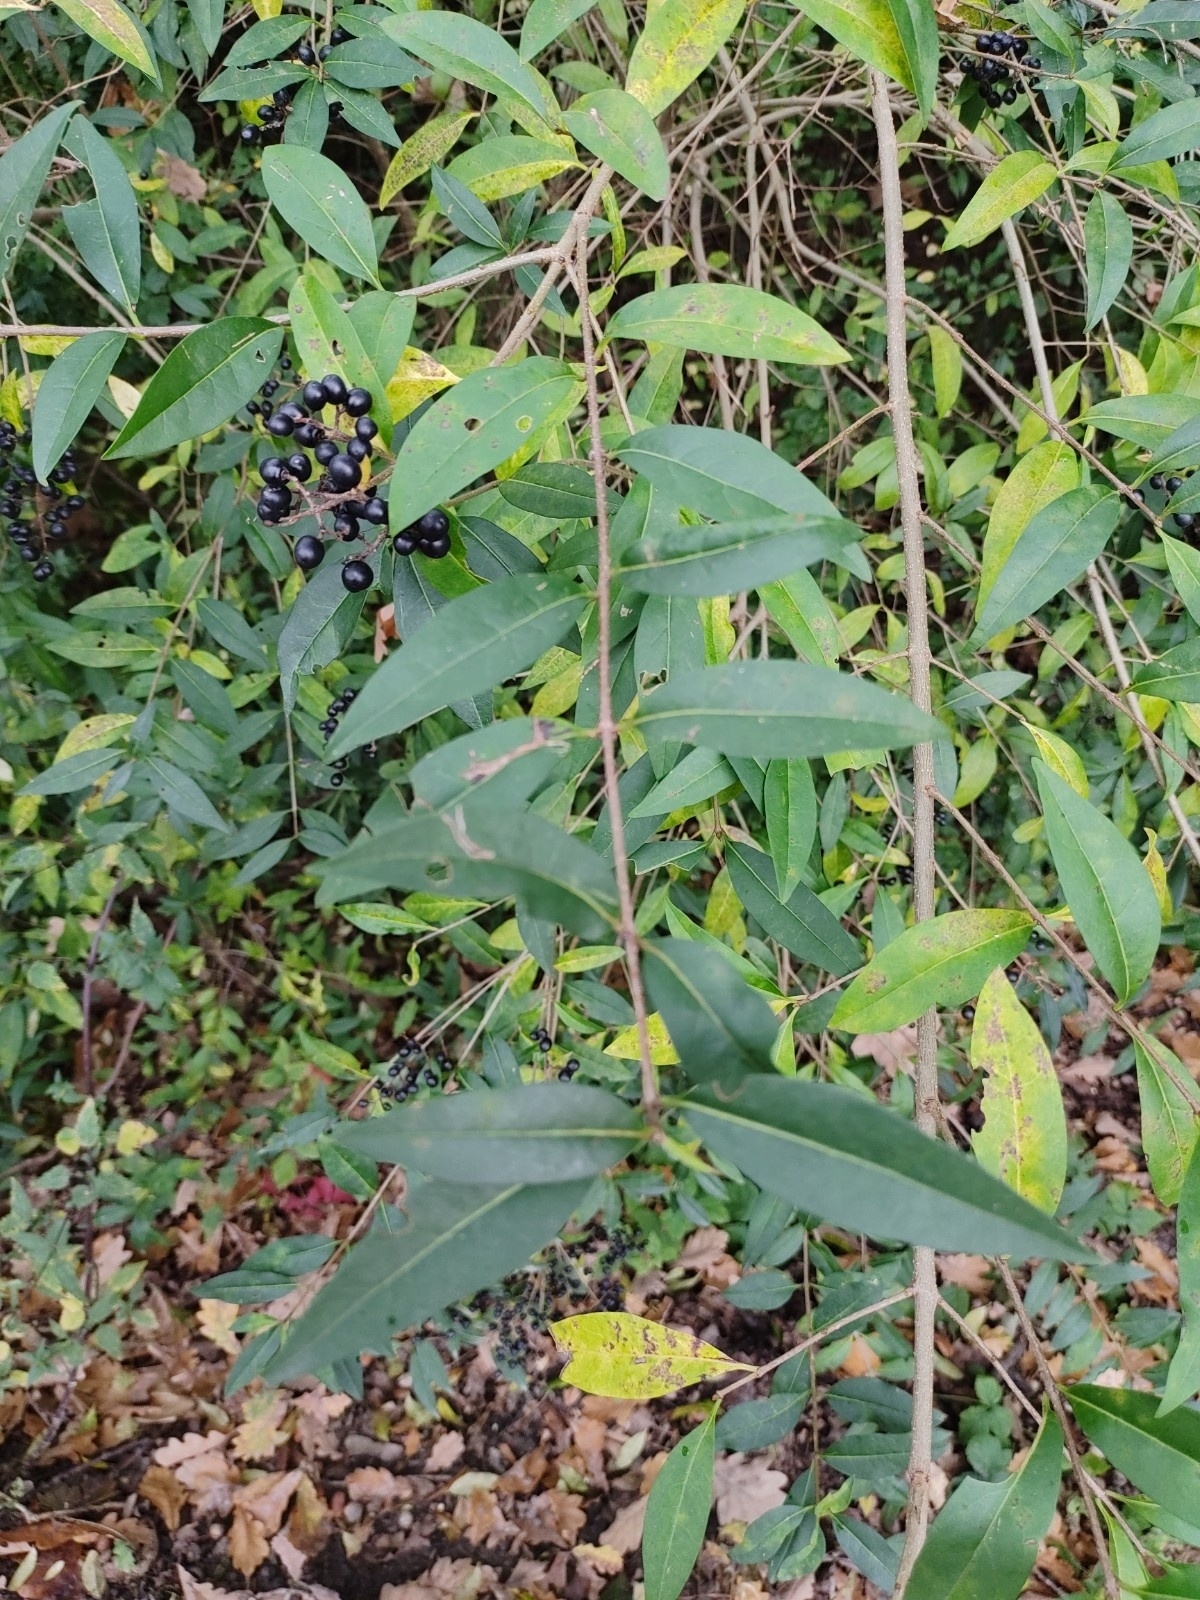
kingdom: Plantae
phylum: Tracheophyta
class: Magnoliopsida
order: Lamiales
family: Oleaceae
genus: Ligustrum
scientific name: Ligustrum vulgare
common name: Wild privet
